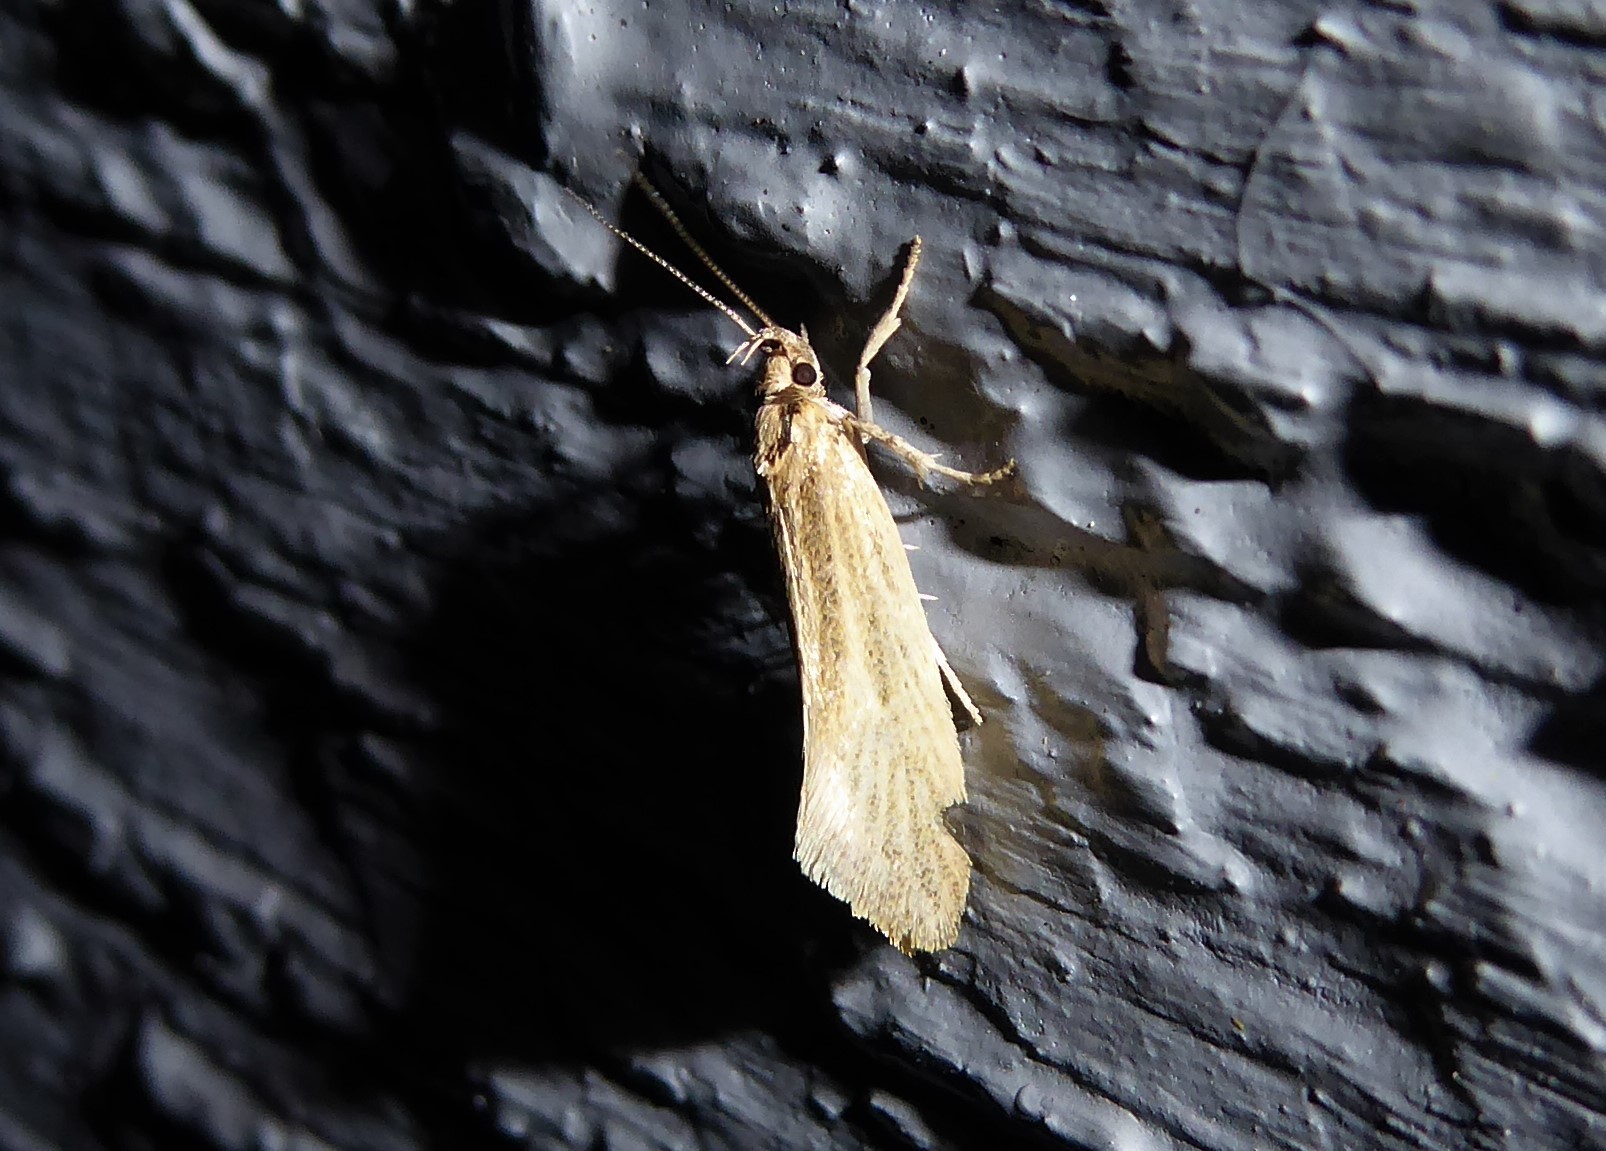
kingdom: Animalia
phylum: Arthropoda
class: Insecta
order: Lepidoptera
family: Oecophoridae
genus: Tingena
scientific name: Tingena chloradelpha
